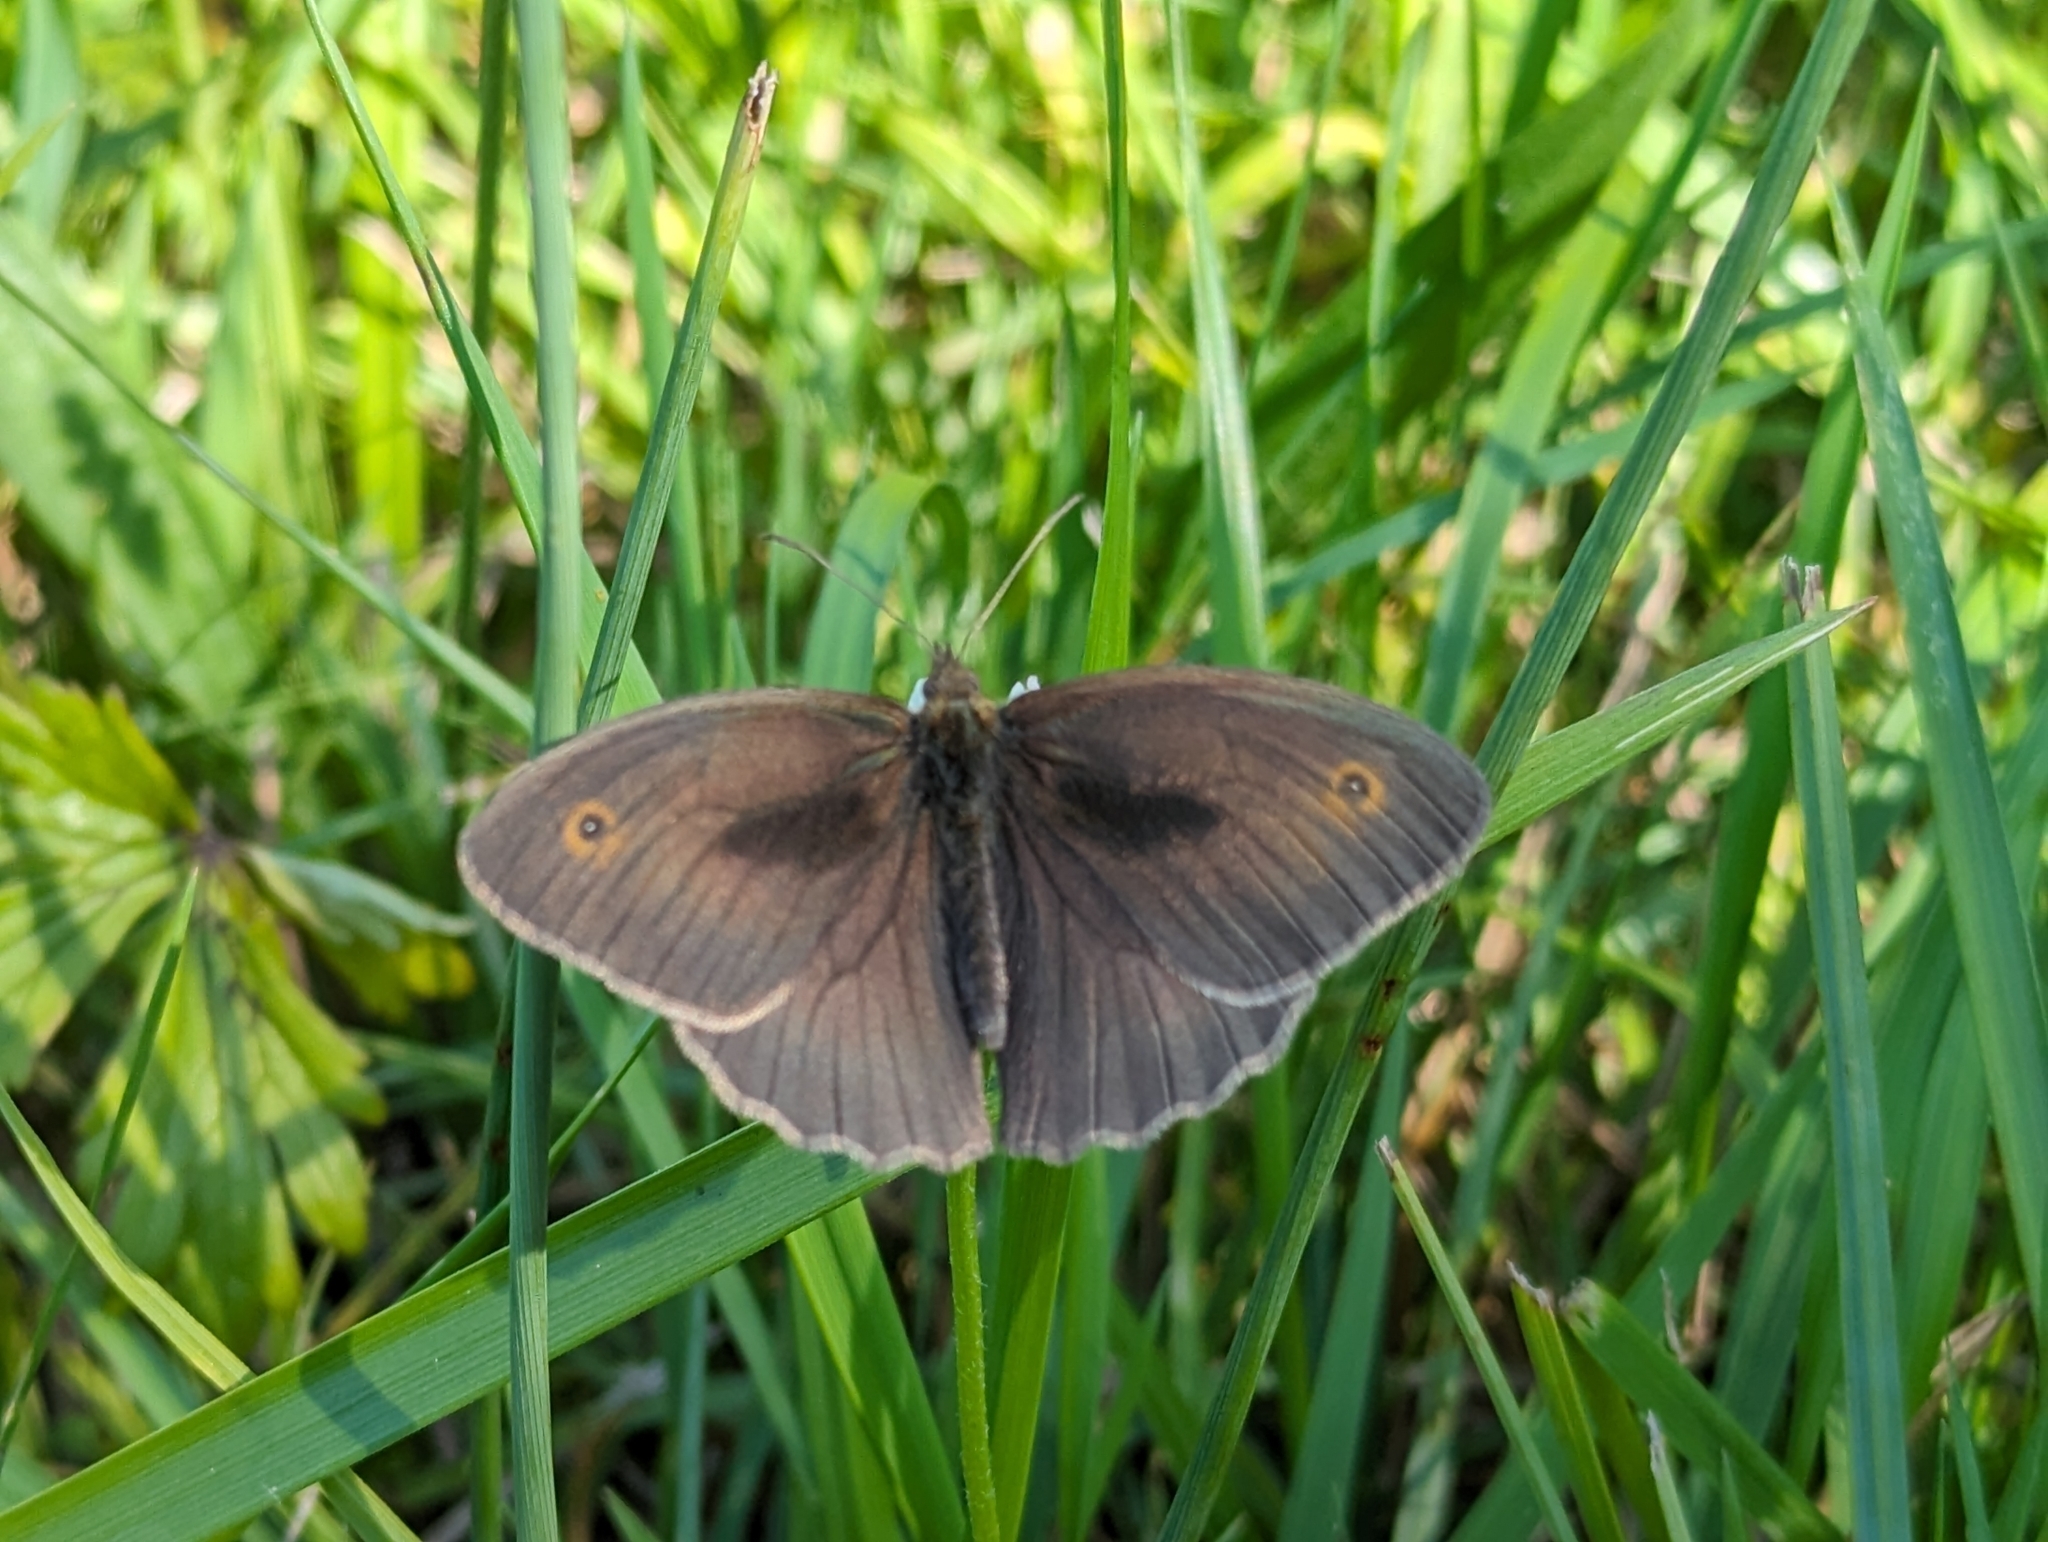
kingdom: Animalia
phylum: Arthropoda
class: Insecta
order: Lepidoptera
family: Nymphalidae
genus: Maniola
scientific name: Maniola jurtina
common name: Meadow brown
